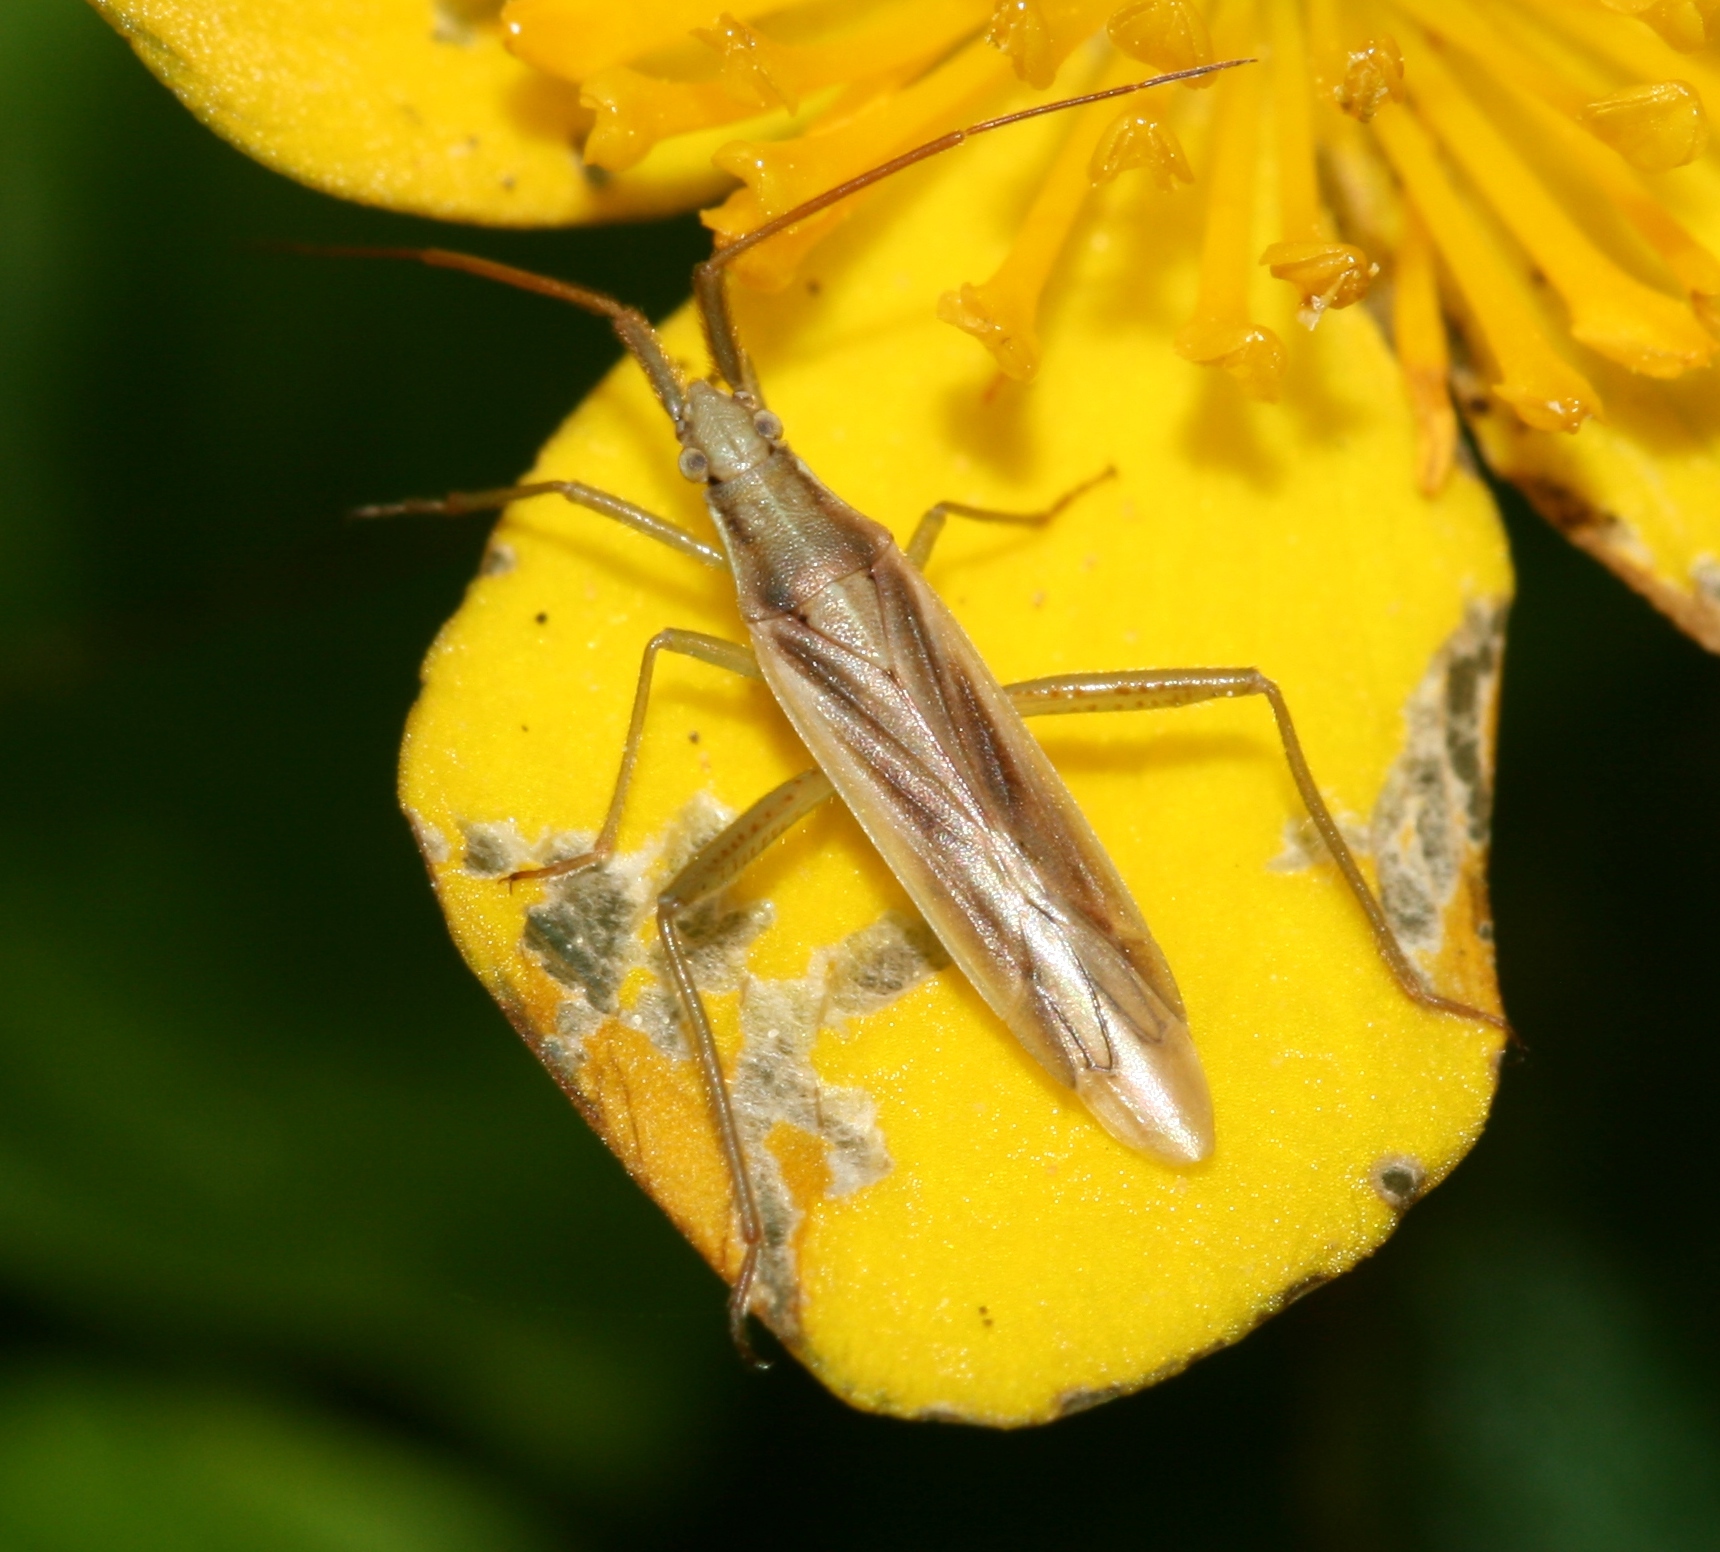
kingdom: Animalia
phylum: Arthropoda
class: Insecta
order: Hemiptera
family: Miridae
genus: Stenodema
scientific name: Stenodema laevigata
